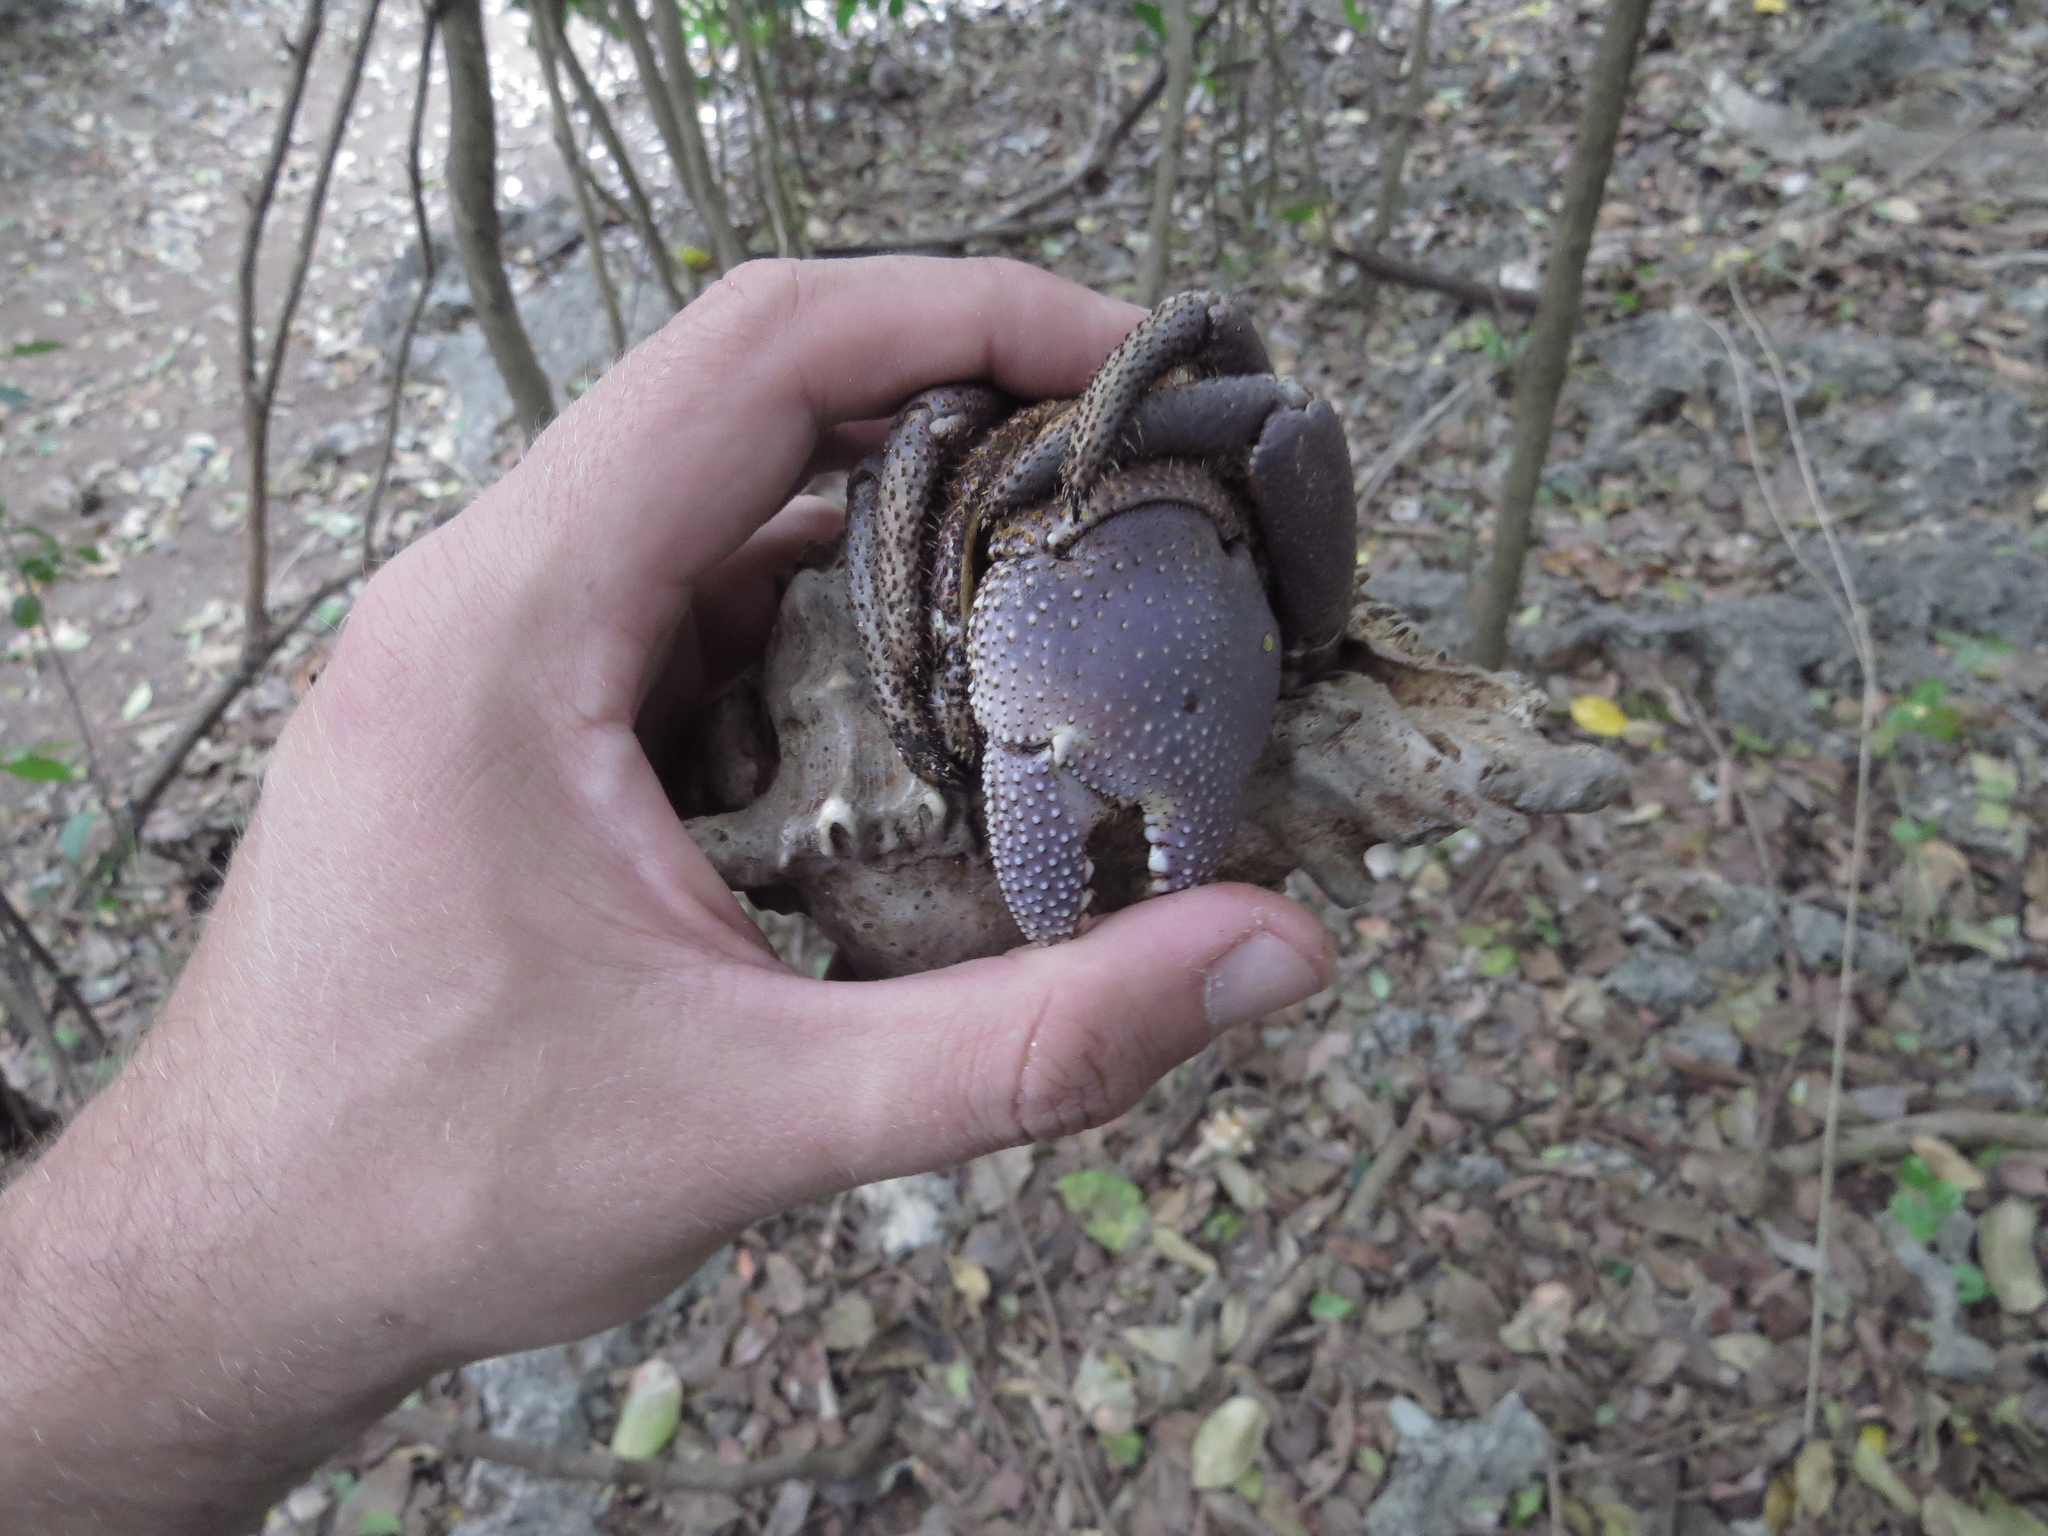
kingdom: Animalia
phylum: Arthropoda
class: Malacostraca
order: Decapoda
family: Coenobitidae
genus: Coenobita
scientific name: Coenobita brevimanus
